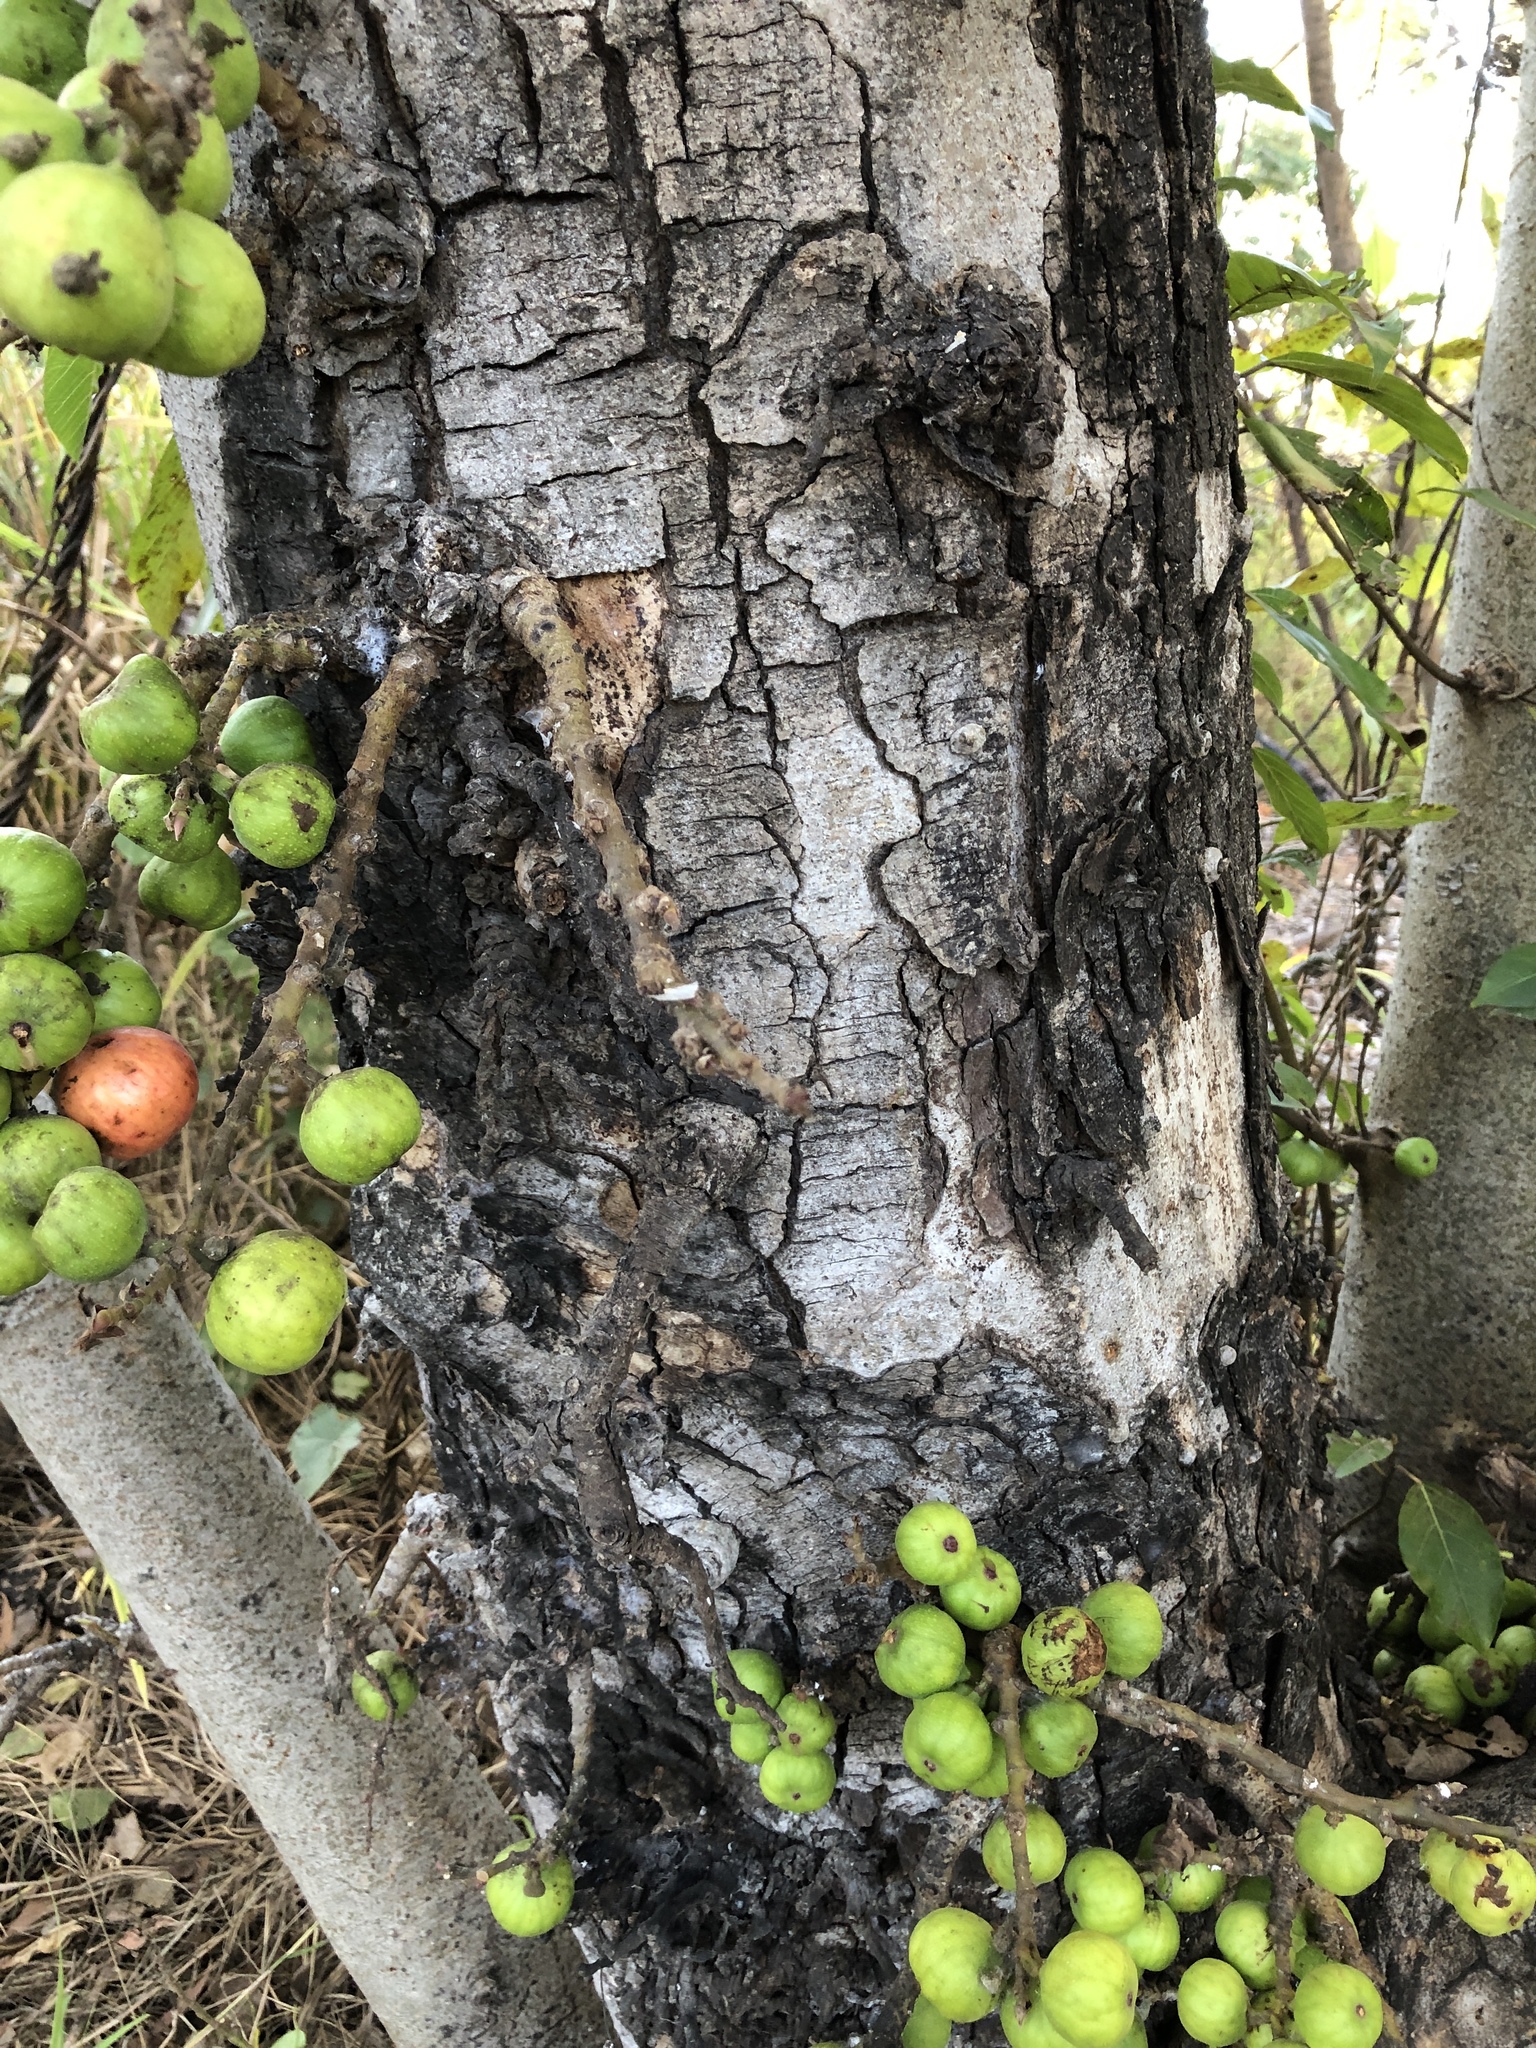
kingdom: Plantae
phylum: Tracheophyta
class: Magnoliopsida
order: Rosales
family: Moraceae
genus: Ficus
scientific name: Ficus racemosa
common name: Cluster fig
